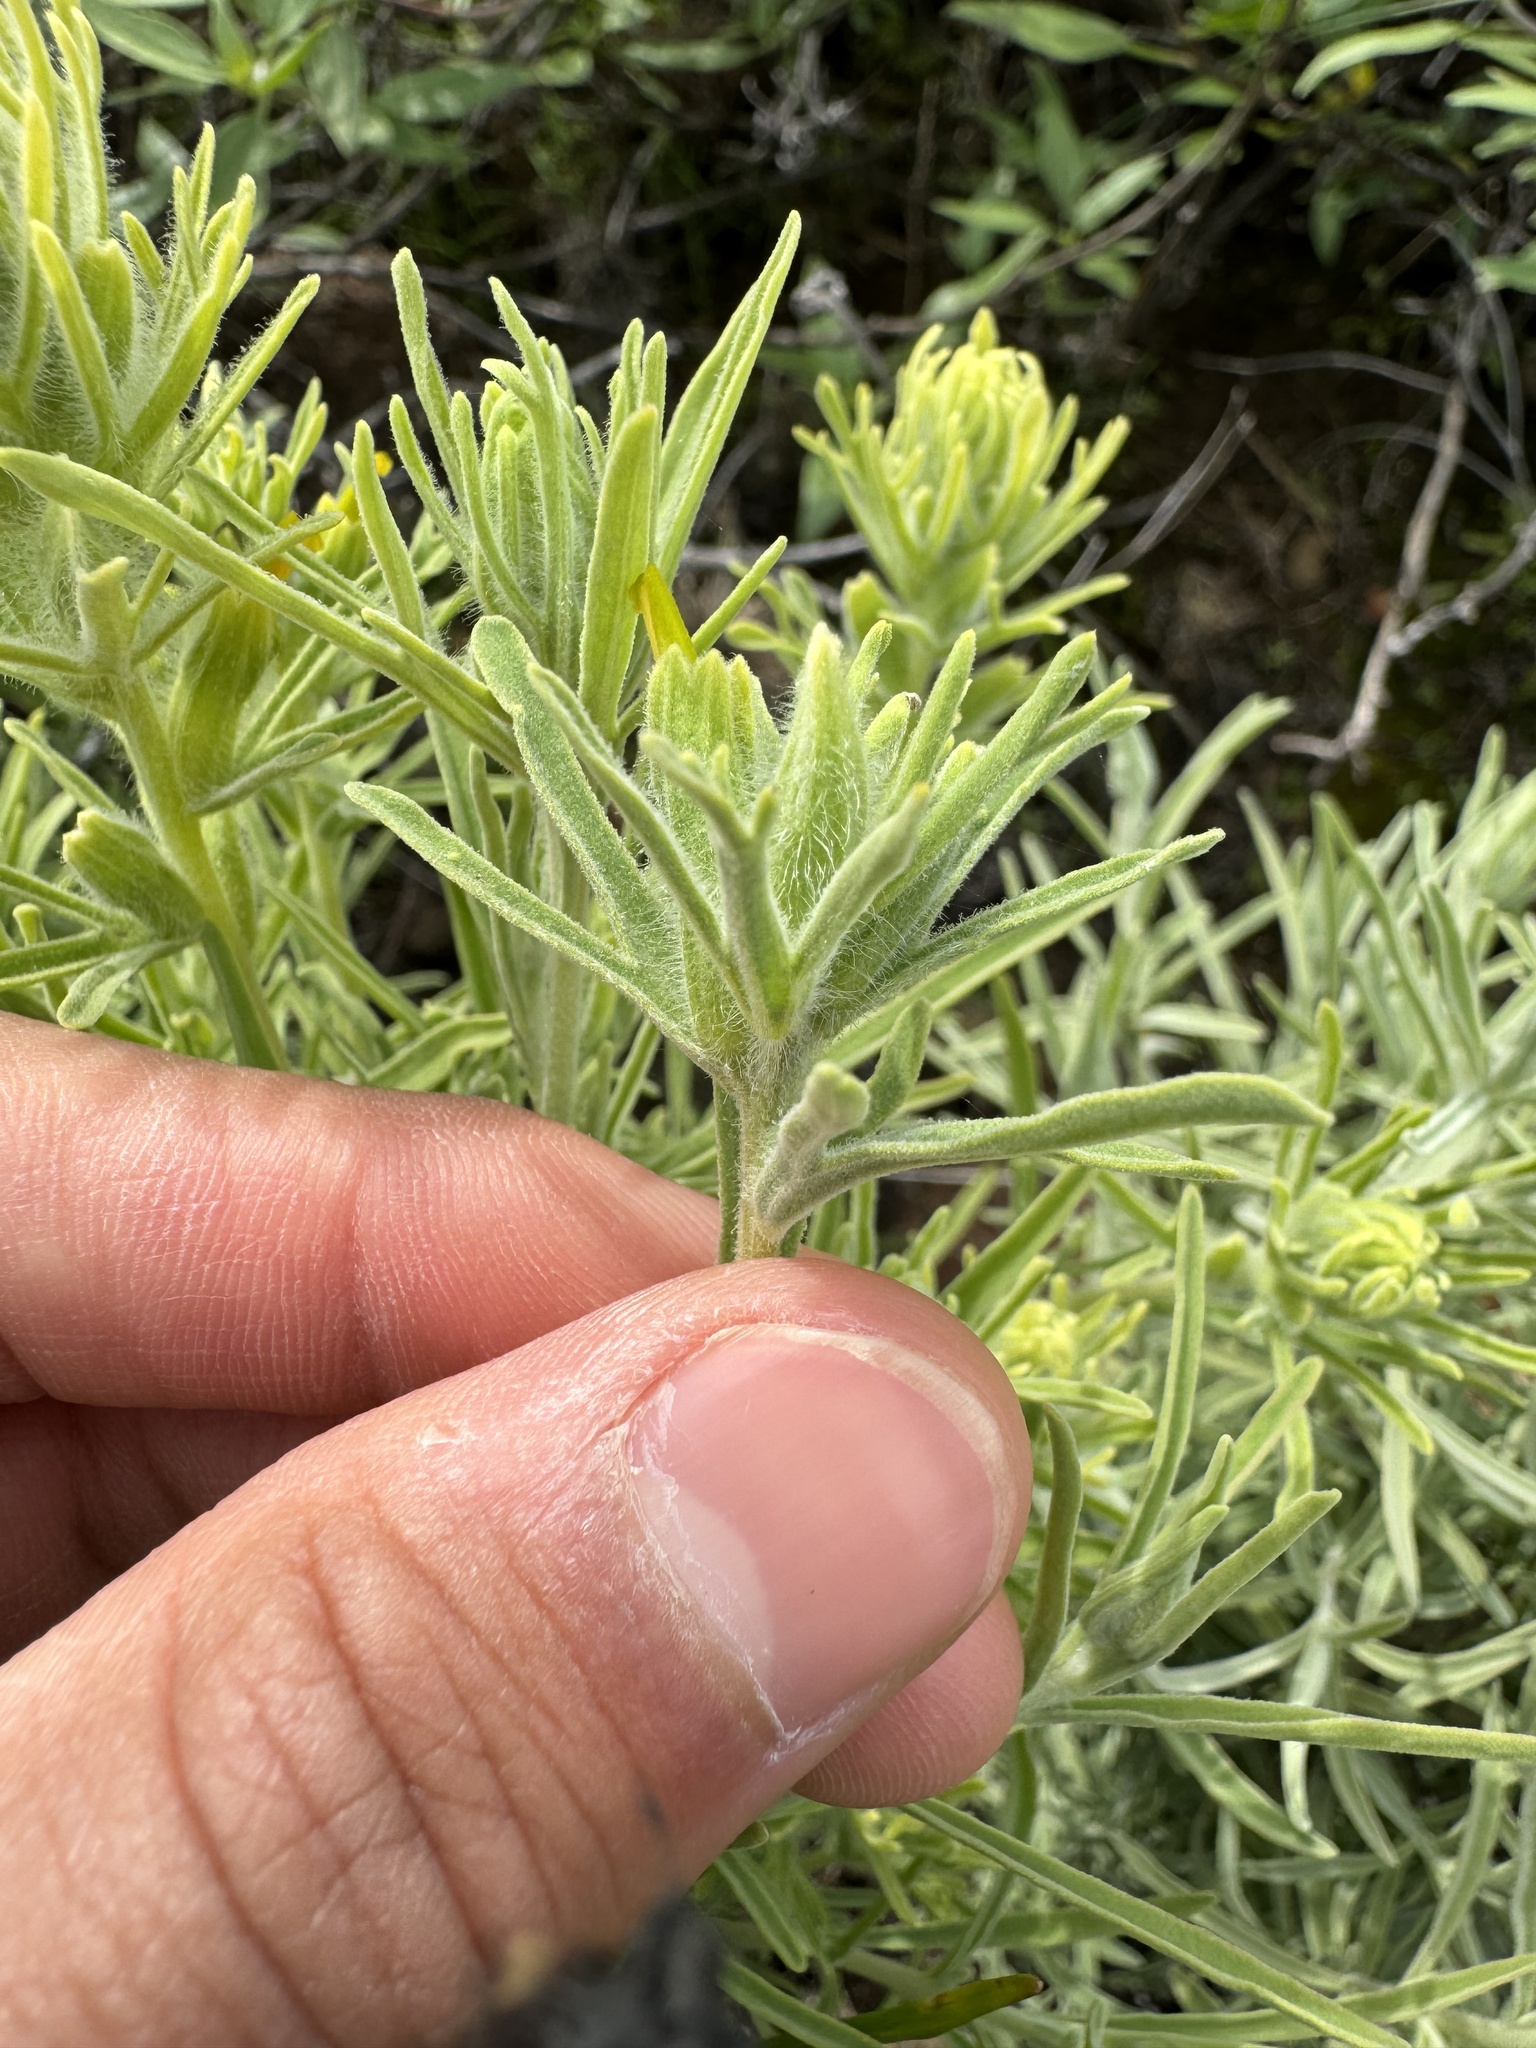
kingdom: Plantae
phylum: Tracheophyta
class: Magnoliopsida
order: Lamiales
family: Orobanchaceae
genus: Castilleja
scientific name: Castilleja grisea
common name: San clemente island indian paintbrush
